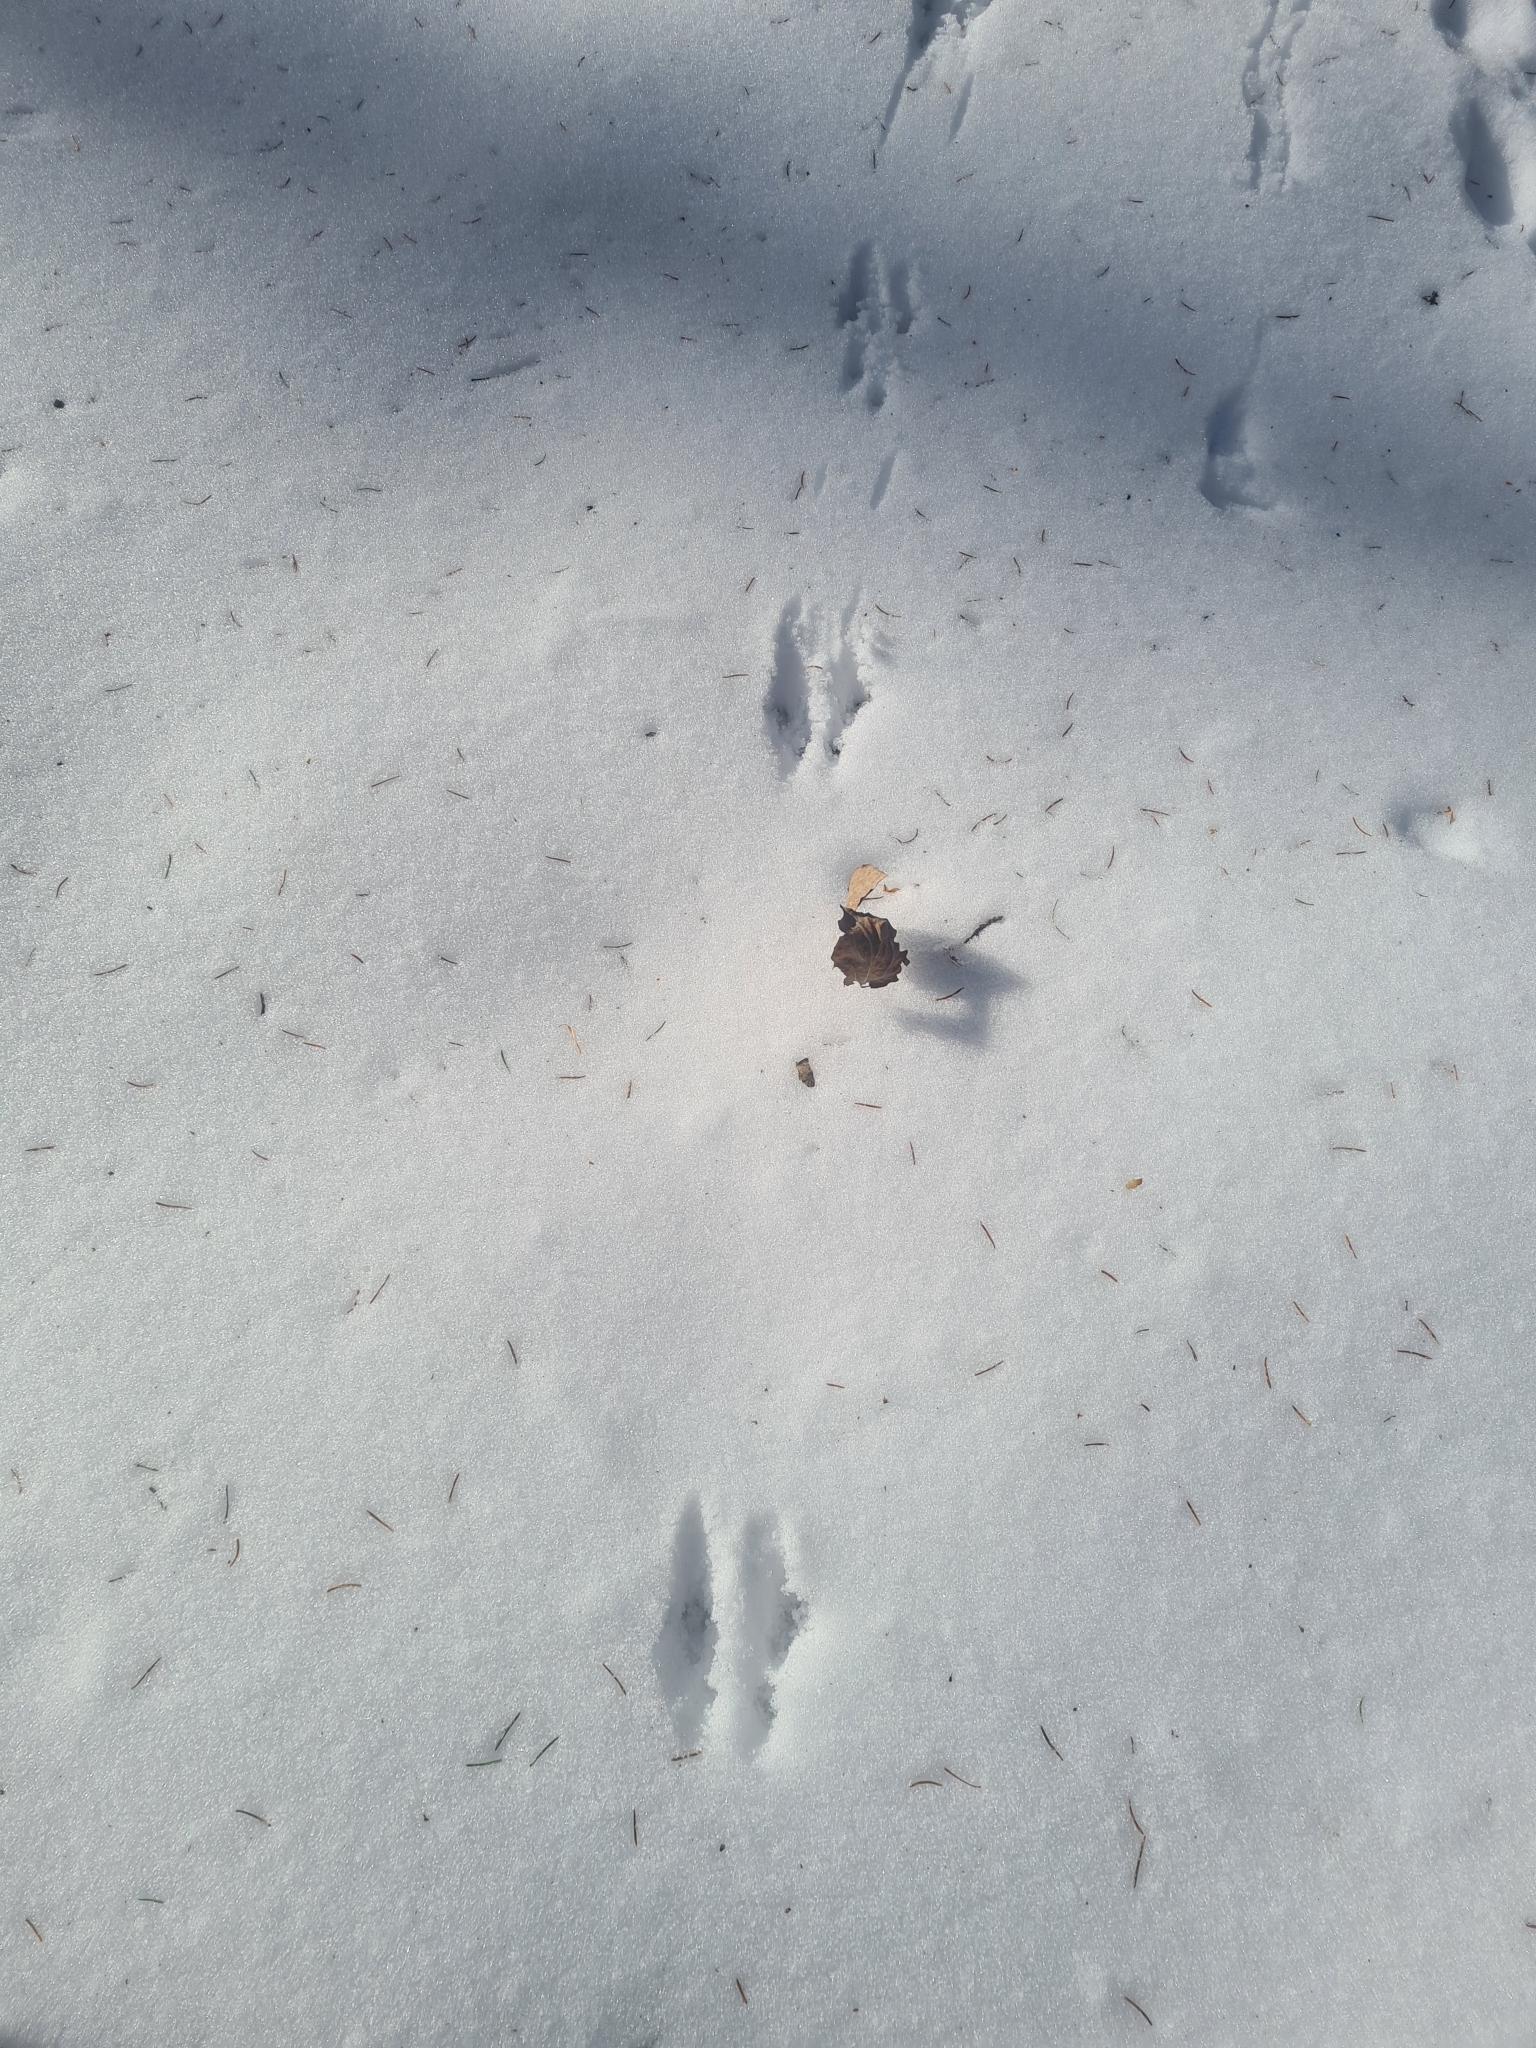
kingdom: Animalia
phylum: Chordata
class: Mammalia
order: Rodentia
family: Sciuridae
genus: Tamias
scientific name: Tamias sibiricus
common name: Siberian chipmunk
